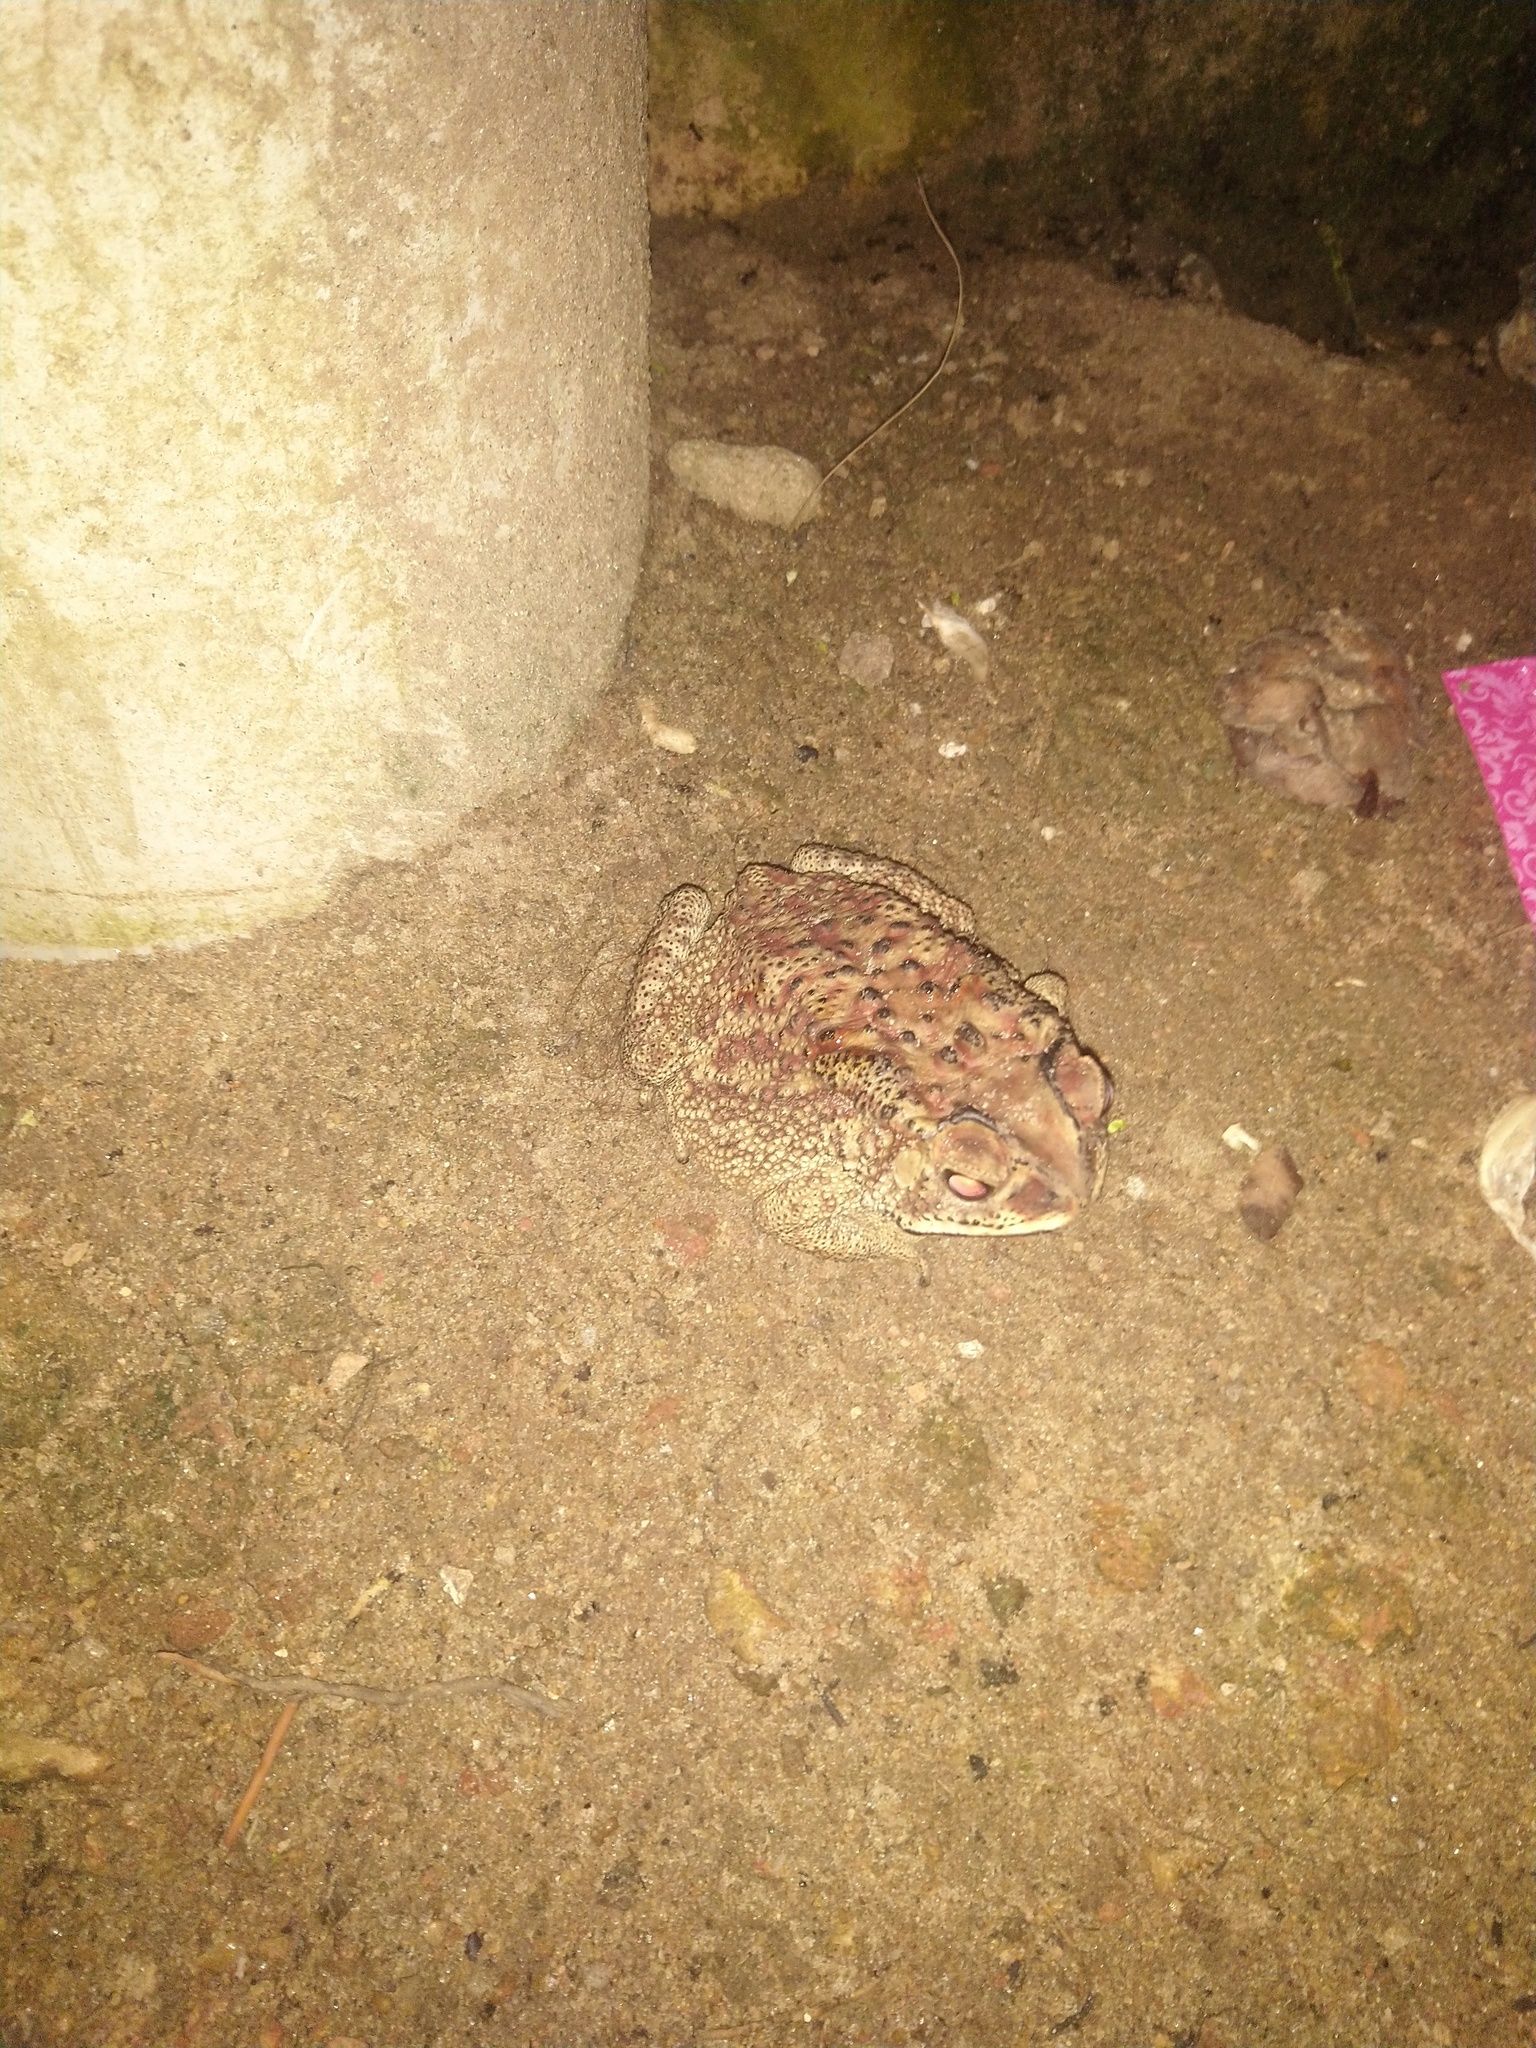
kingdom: Animalia
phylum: Chordata
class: Amphibia
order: Anura
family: Bufonidae
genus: Duttaphrynus
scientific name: Duttaphrynus melanostictus
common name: Common sunda toad
